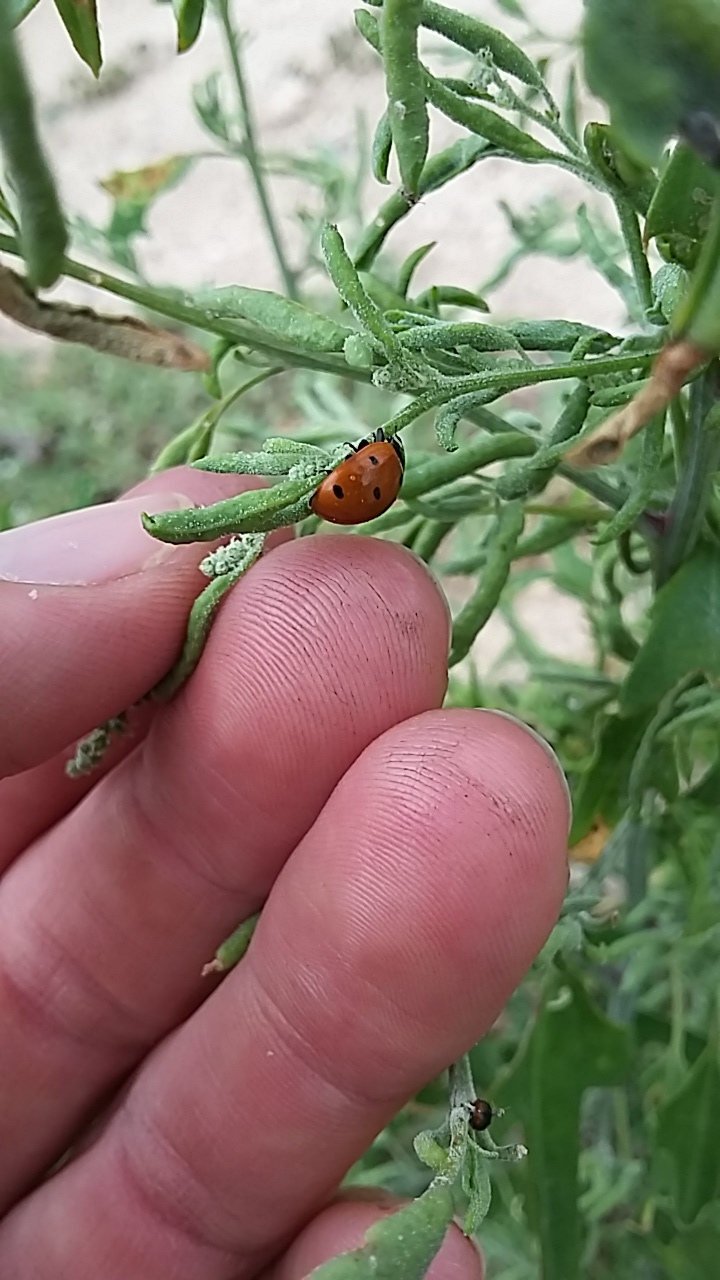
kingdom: Animalia
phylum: Arthropoda
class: Insecta
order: Coleoptera
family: Coccinellidae
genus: Coccinella
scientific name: Coccinella septempunctata
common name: Sevenspotted lady beetle
